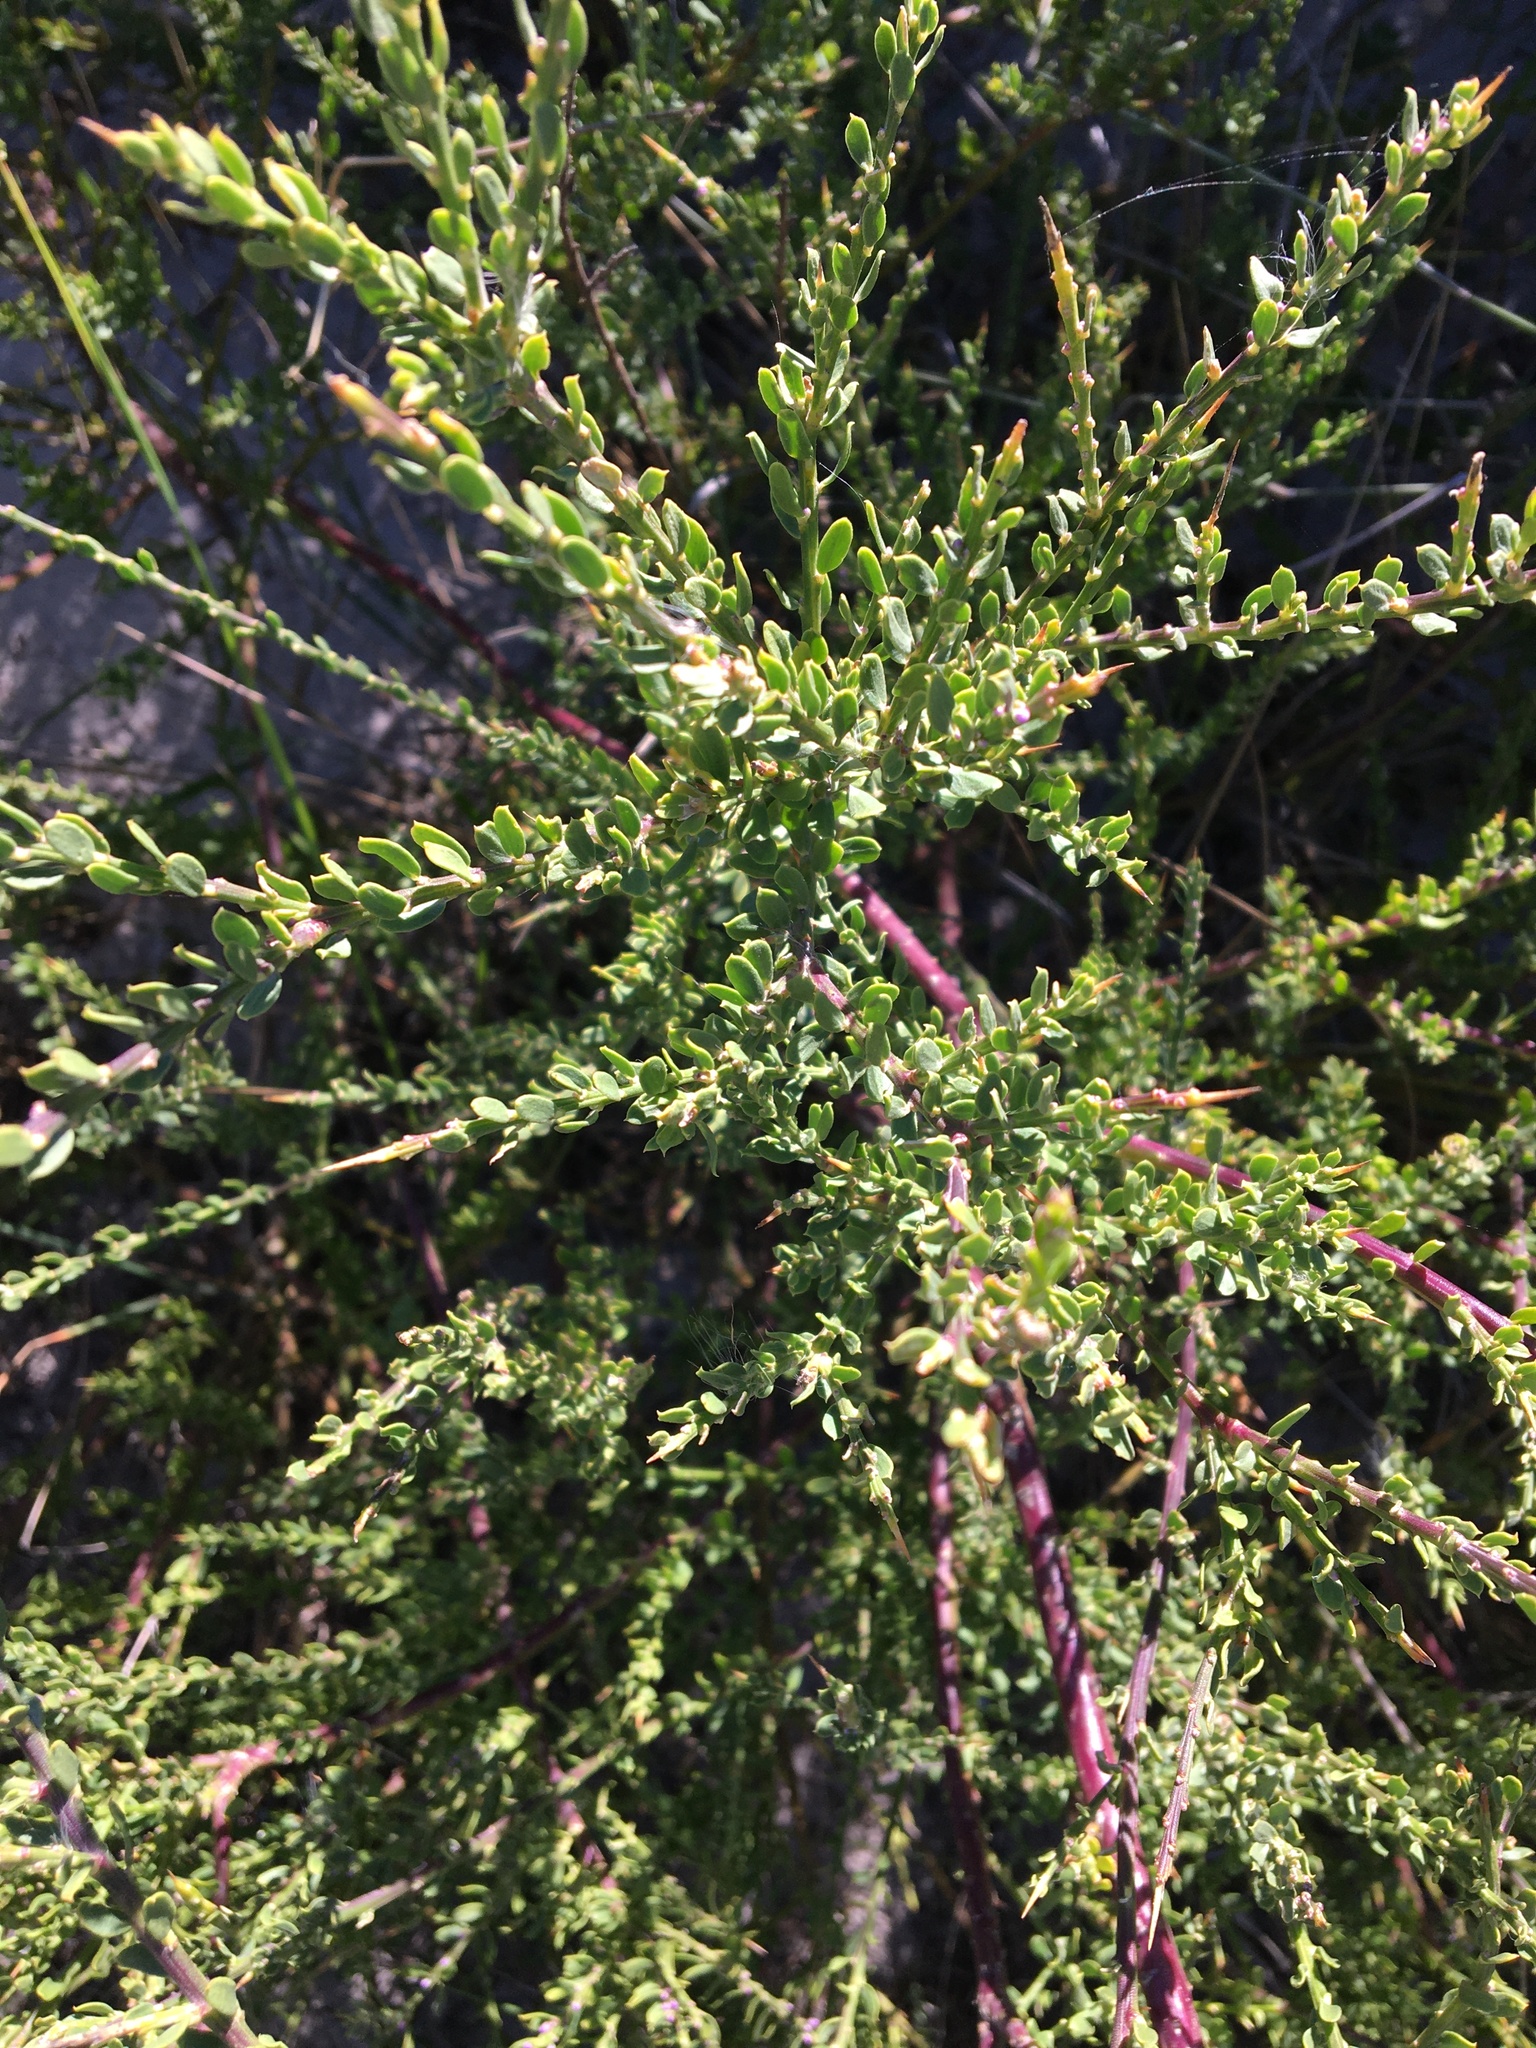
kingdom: Plantae
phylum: Tracheophyta
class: Magnoliopsida
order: Fabales
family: Polygalaceae
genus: Muraltia
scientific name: Muraltia spinosa
